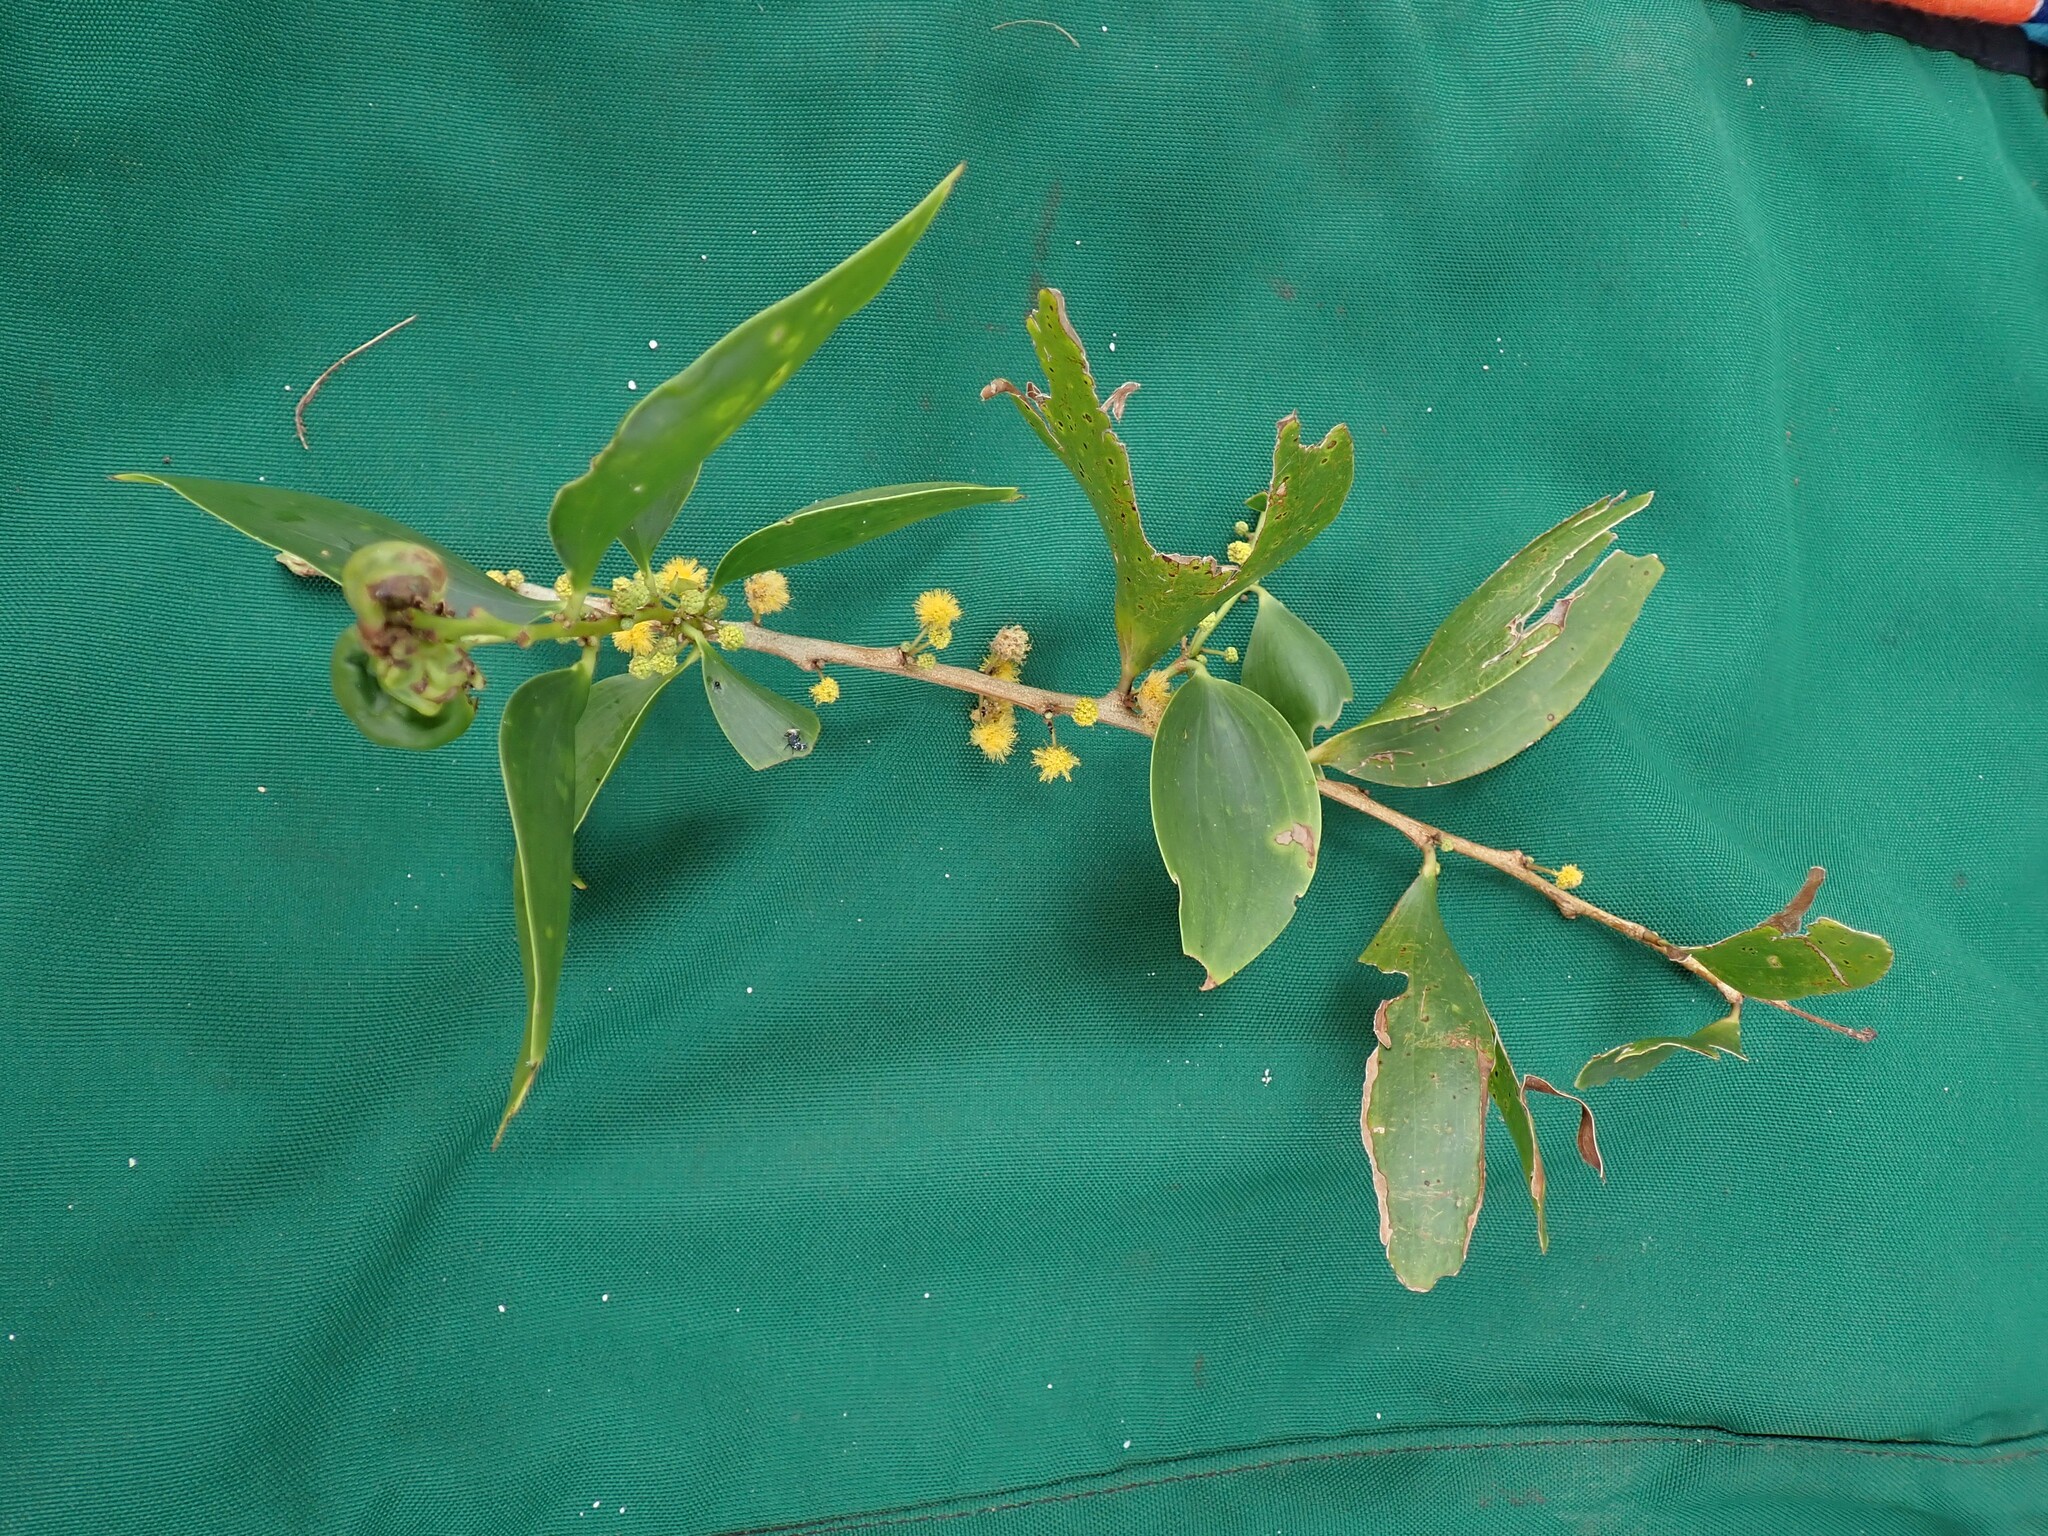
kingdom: Plantae
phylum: Tracheophyta
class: Magnoliopsida
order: Fabales
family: Fabaceae
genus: Acacia
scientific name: Acacia simplex
